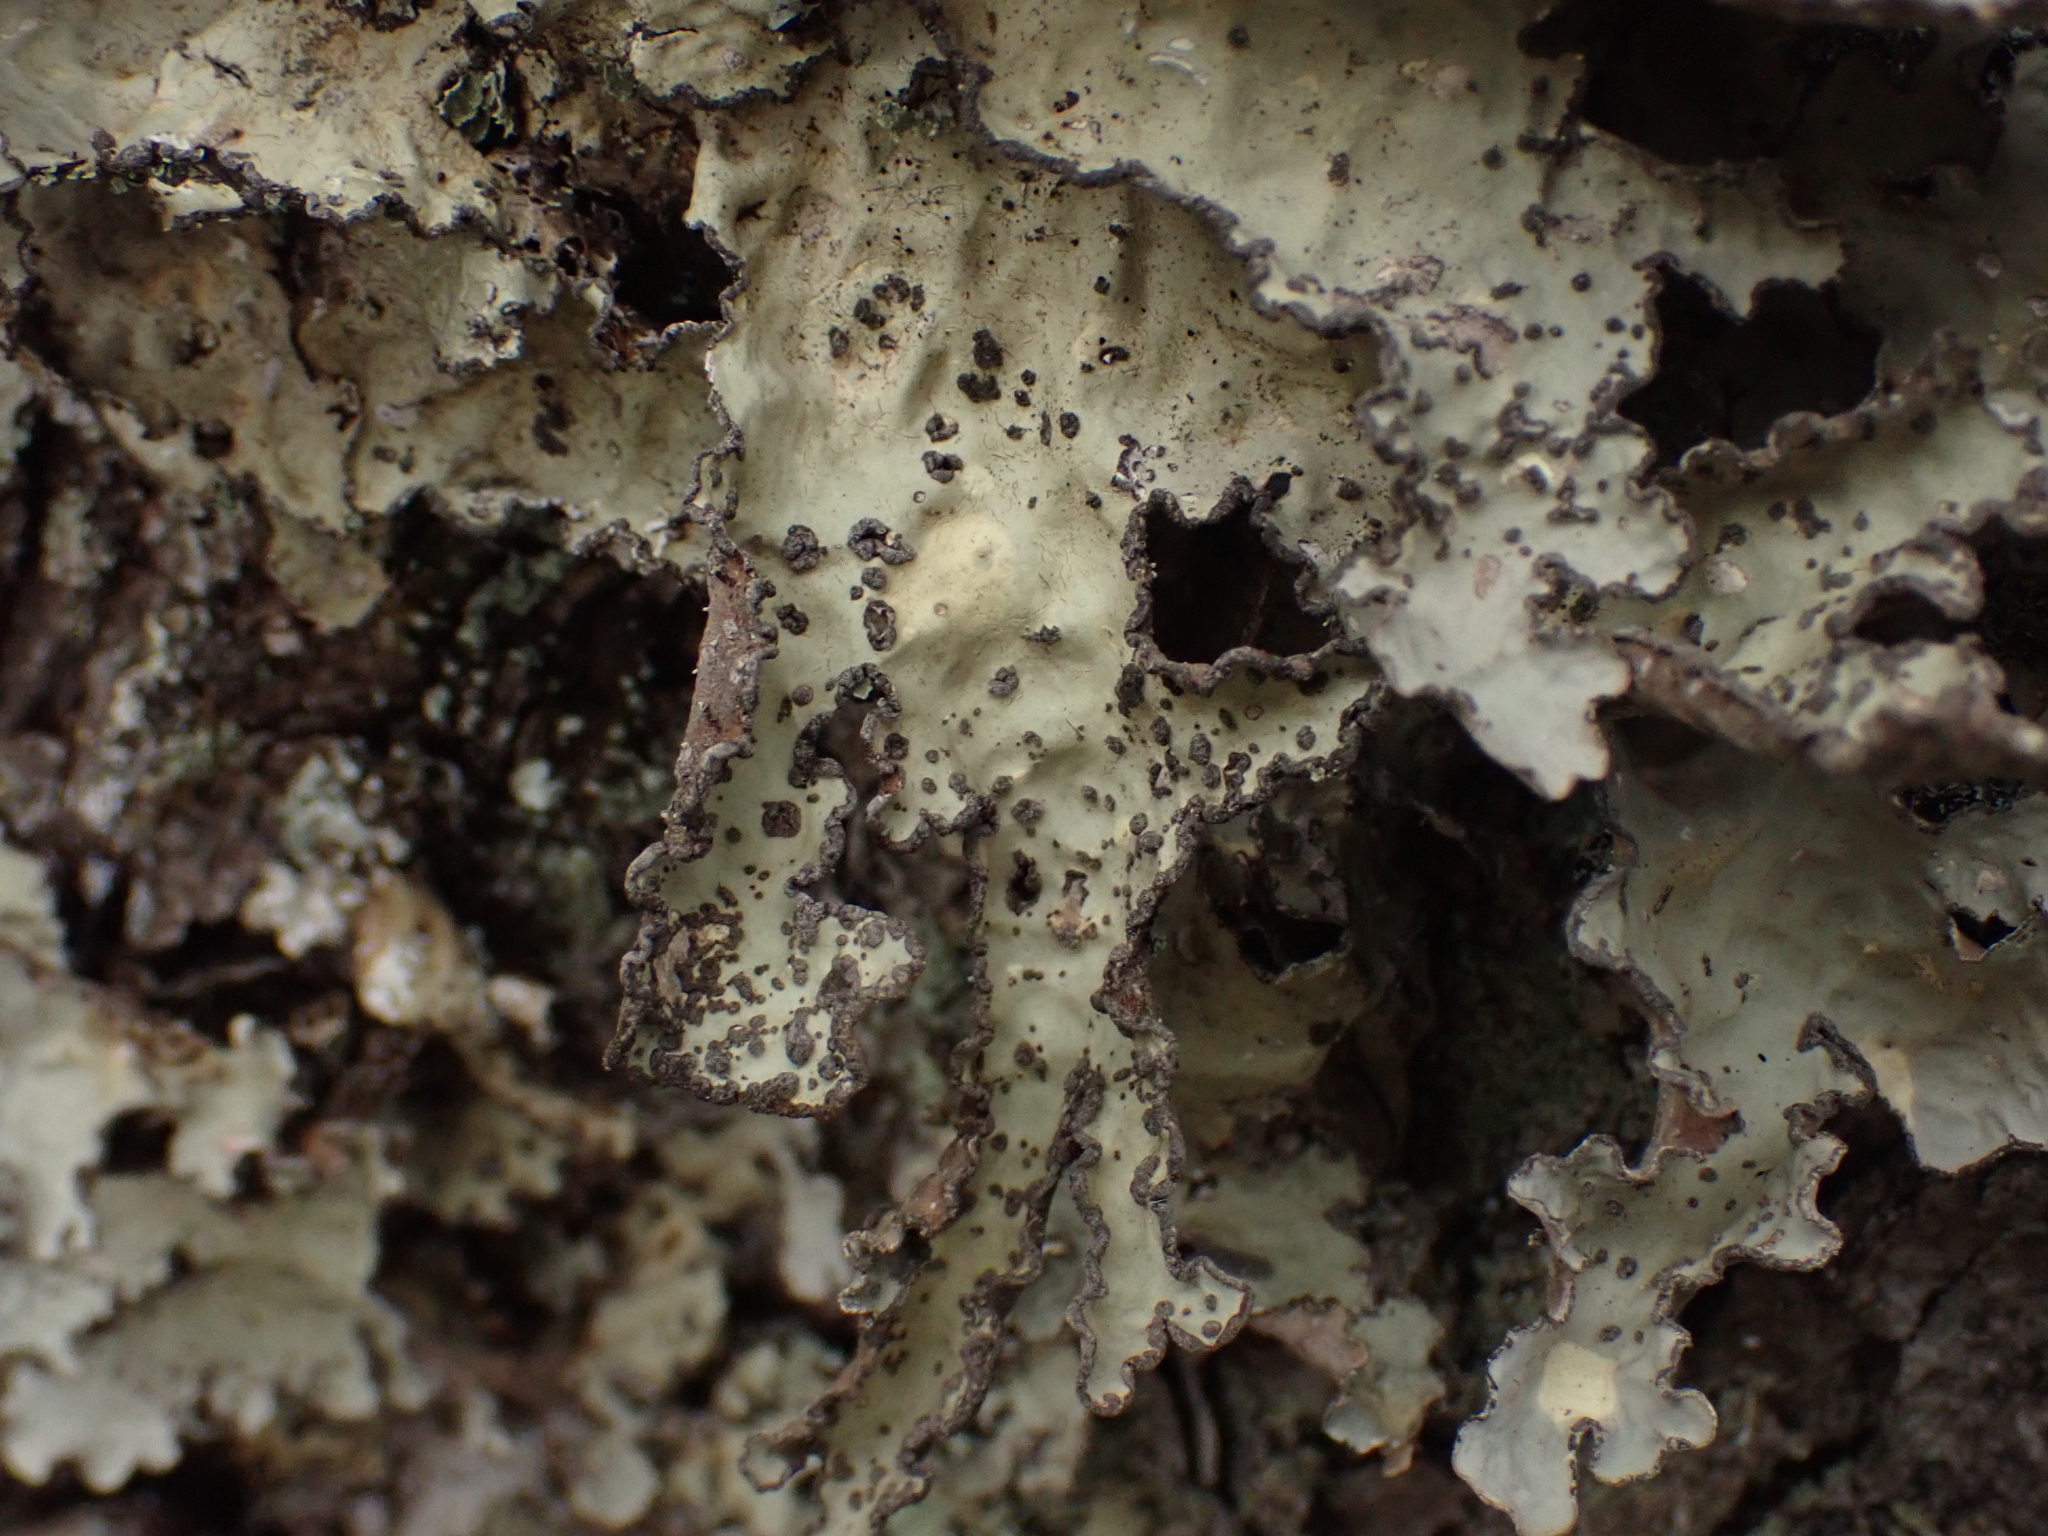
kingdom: Fungi
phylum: Ascomycota
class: Lecanoromycetes
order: Peltigerales
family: Lobariaceae
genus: Lobarina
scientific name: Lobarina scrobiculata
